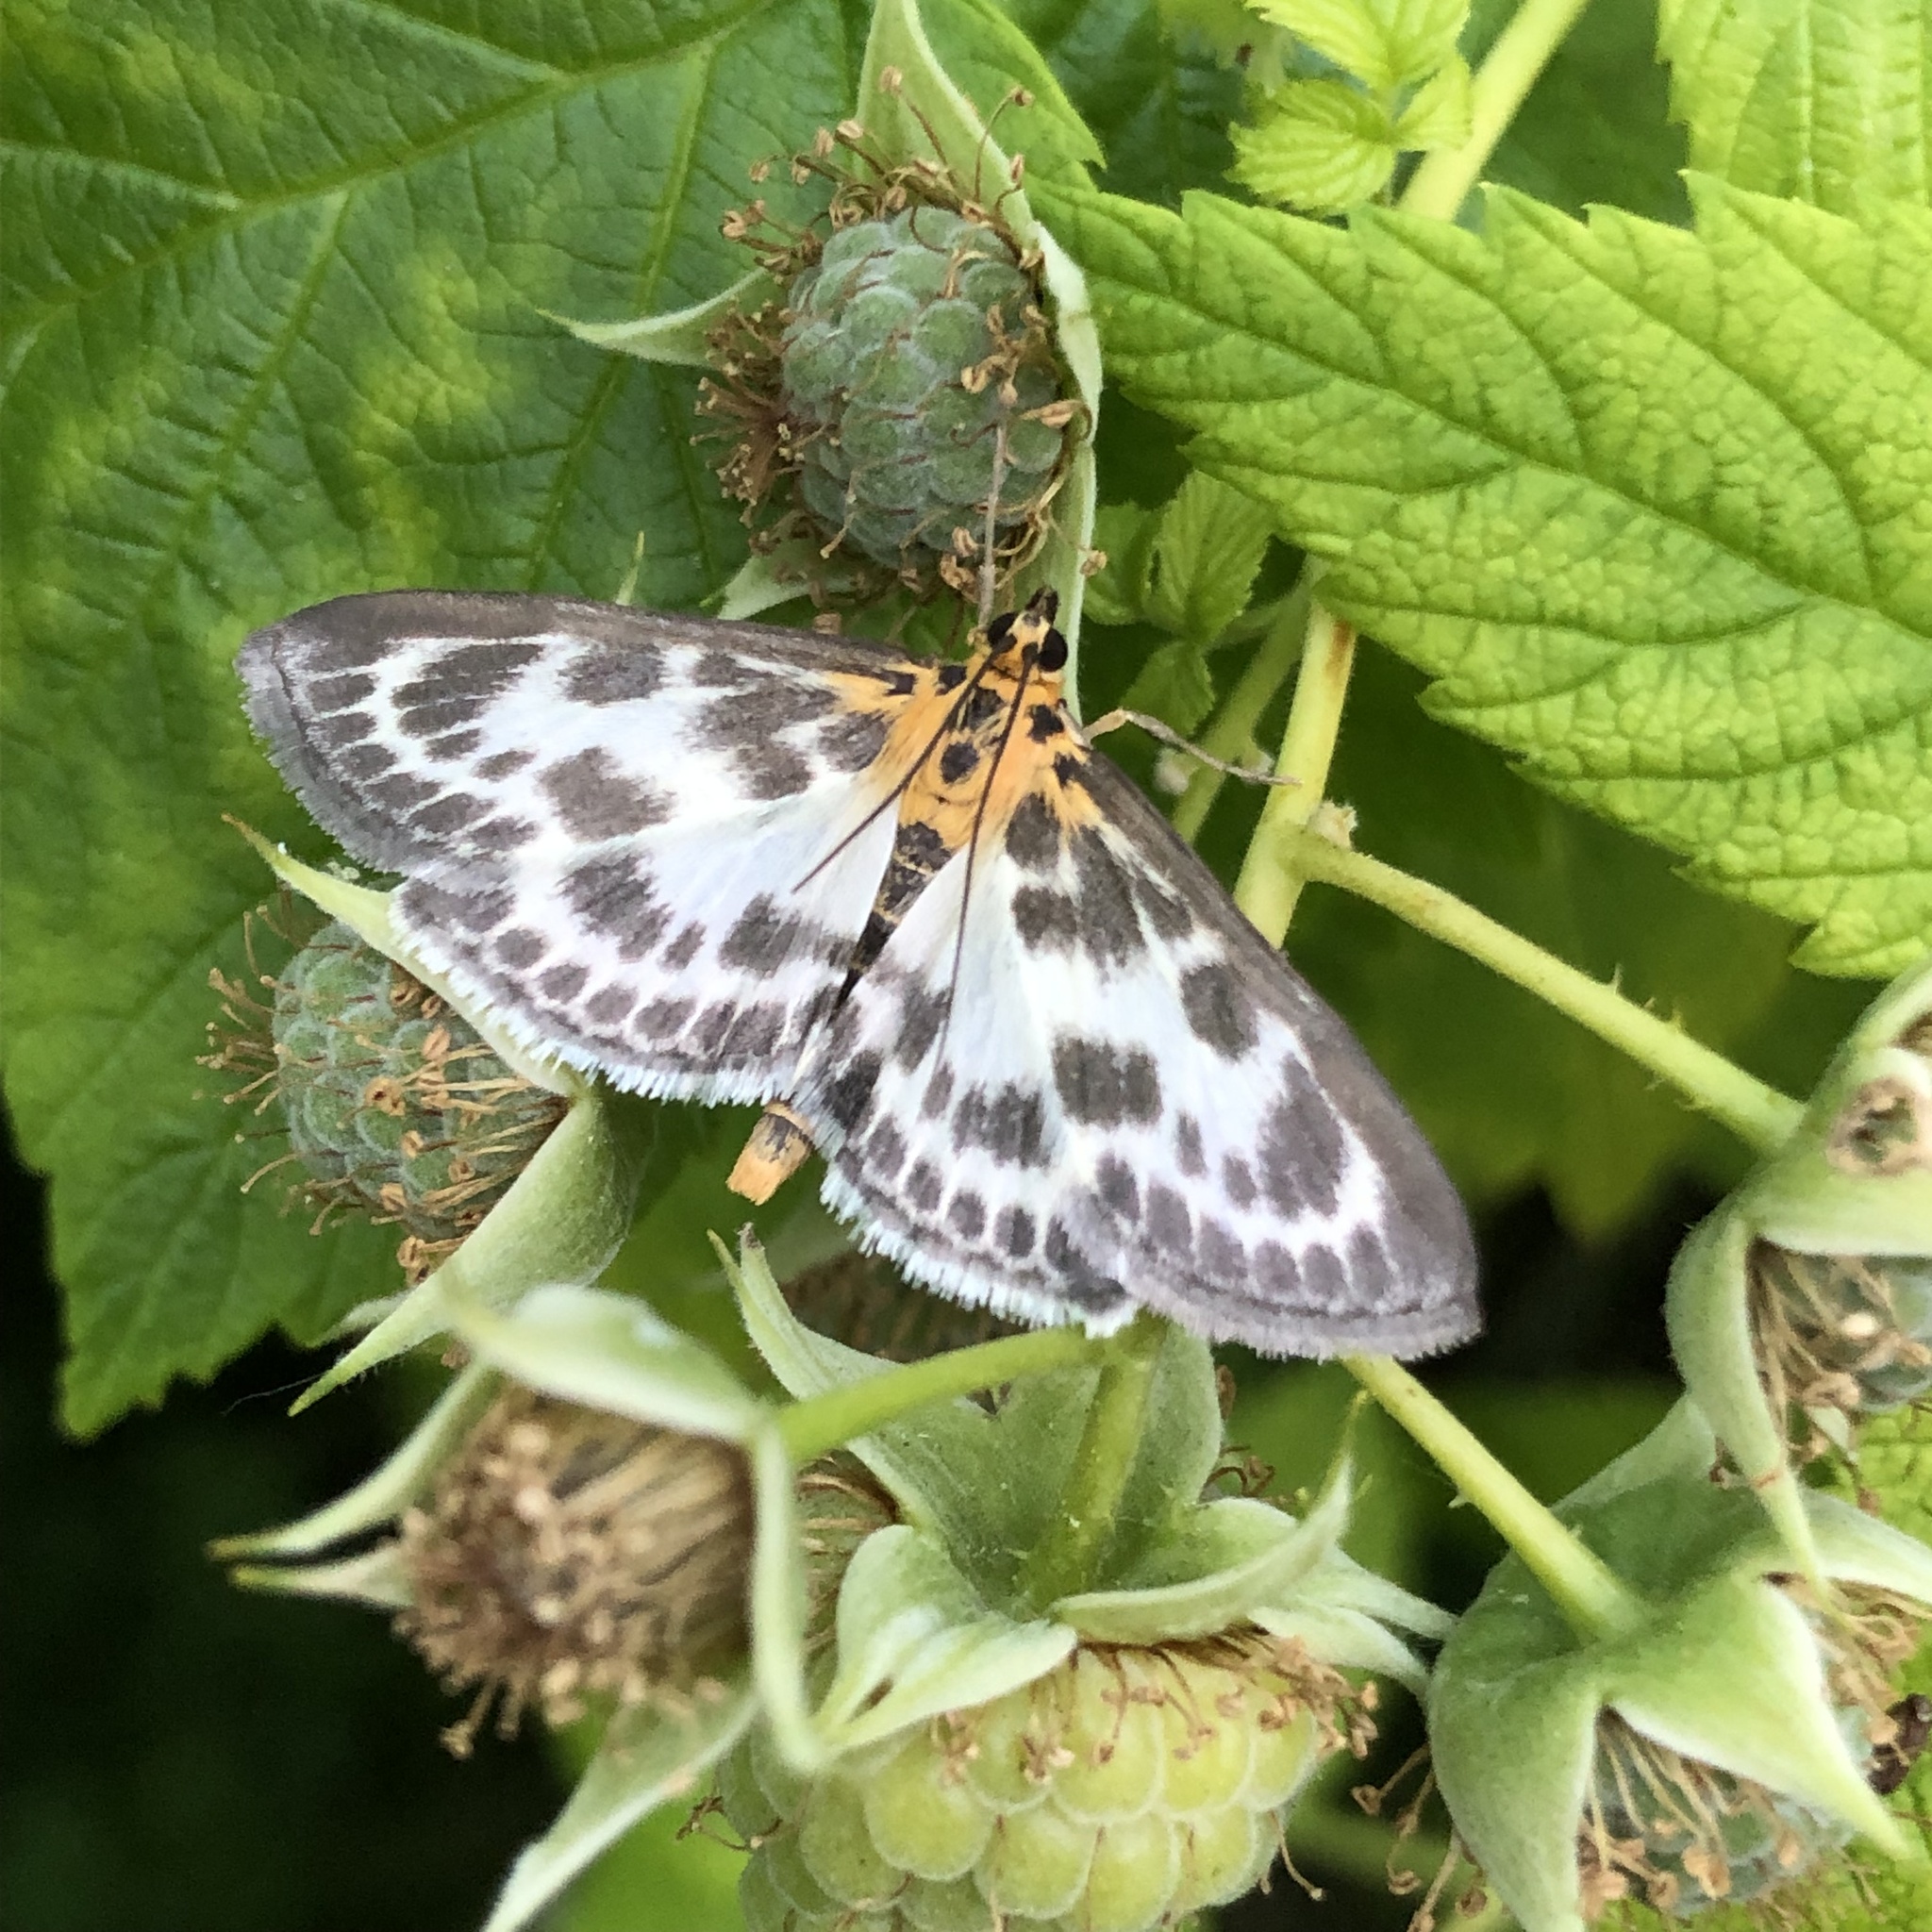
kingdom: Animalia
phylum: Arthropoda
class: Insecta
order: Lepidoptera
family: Crambidae
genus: Anania
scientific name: Anania hortulata
